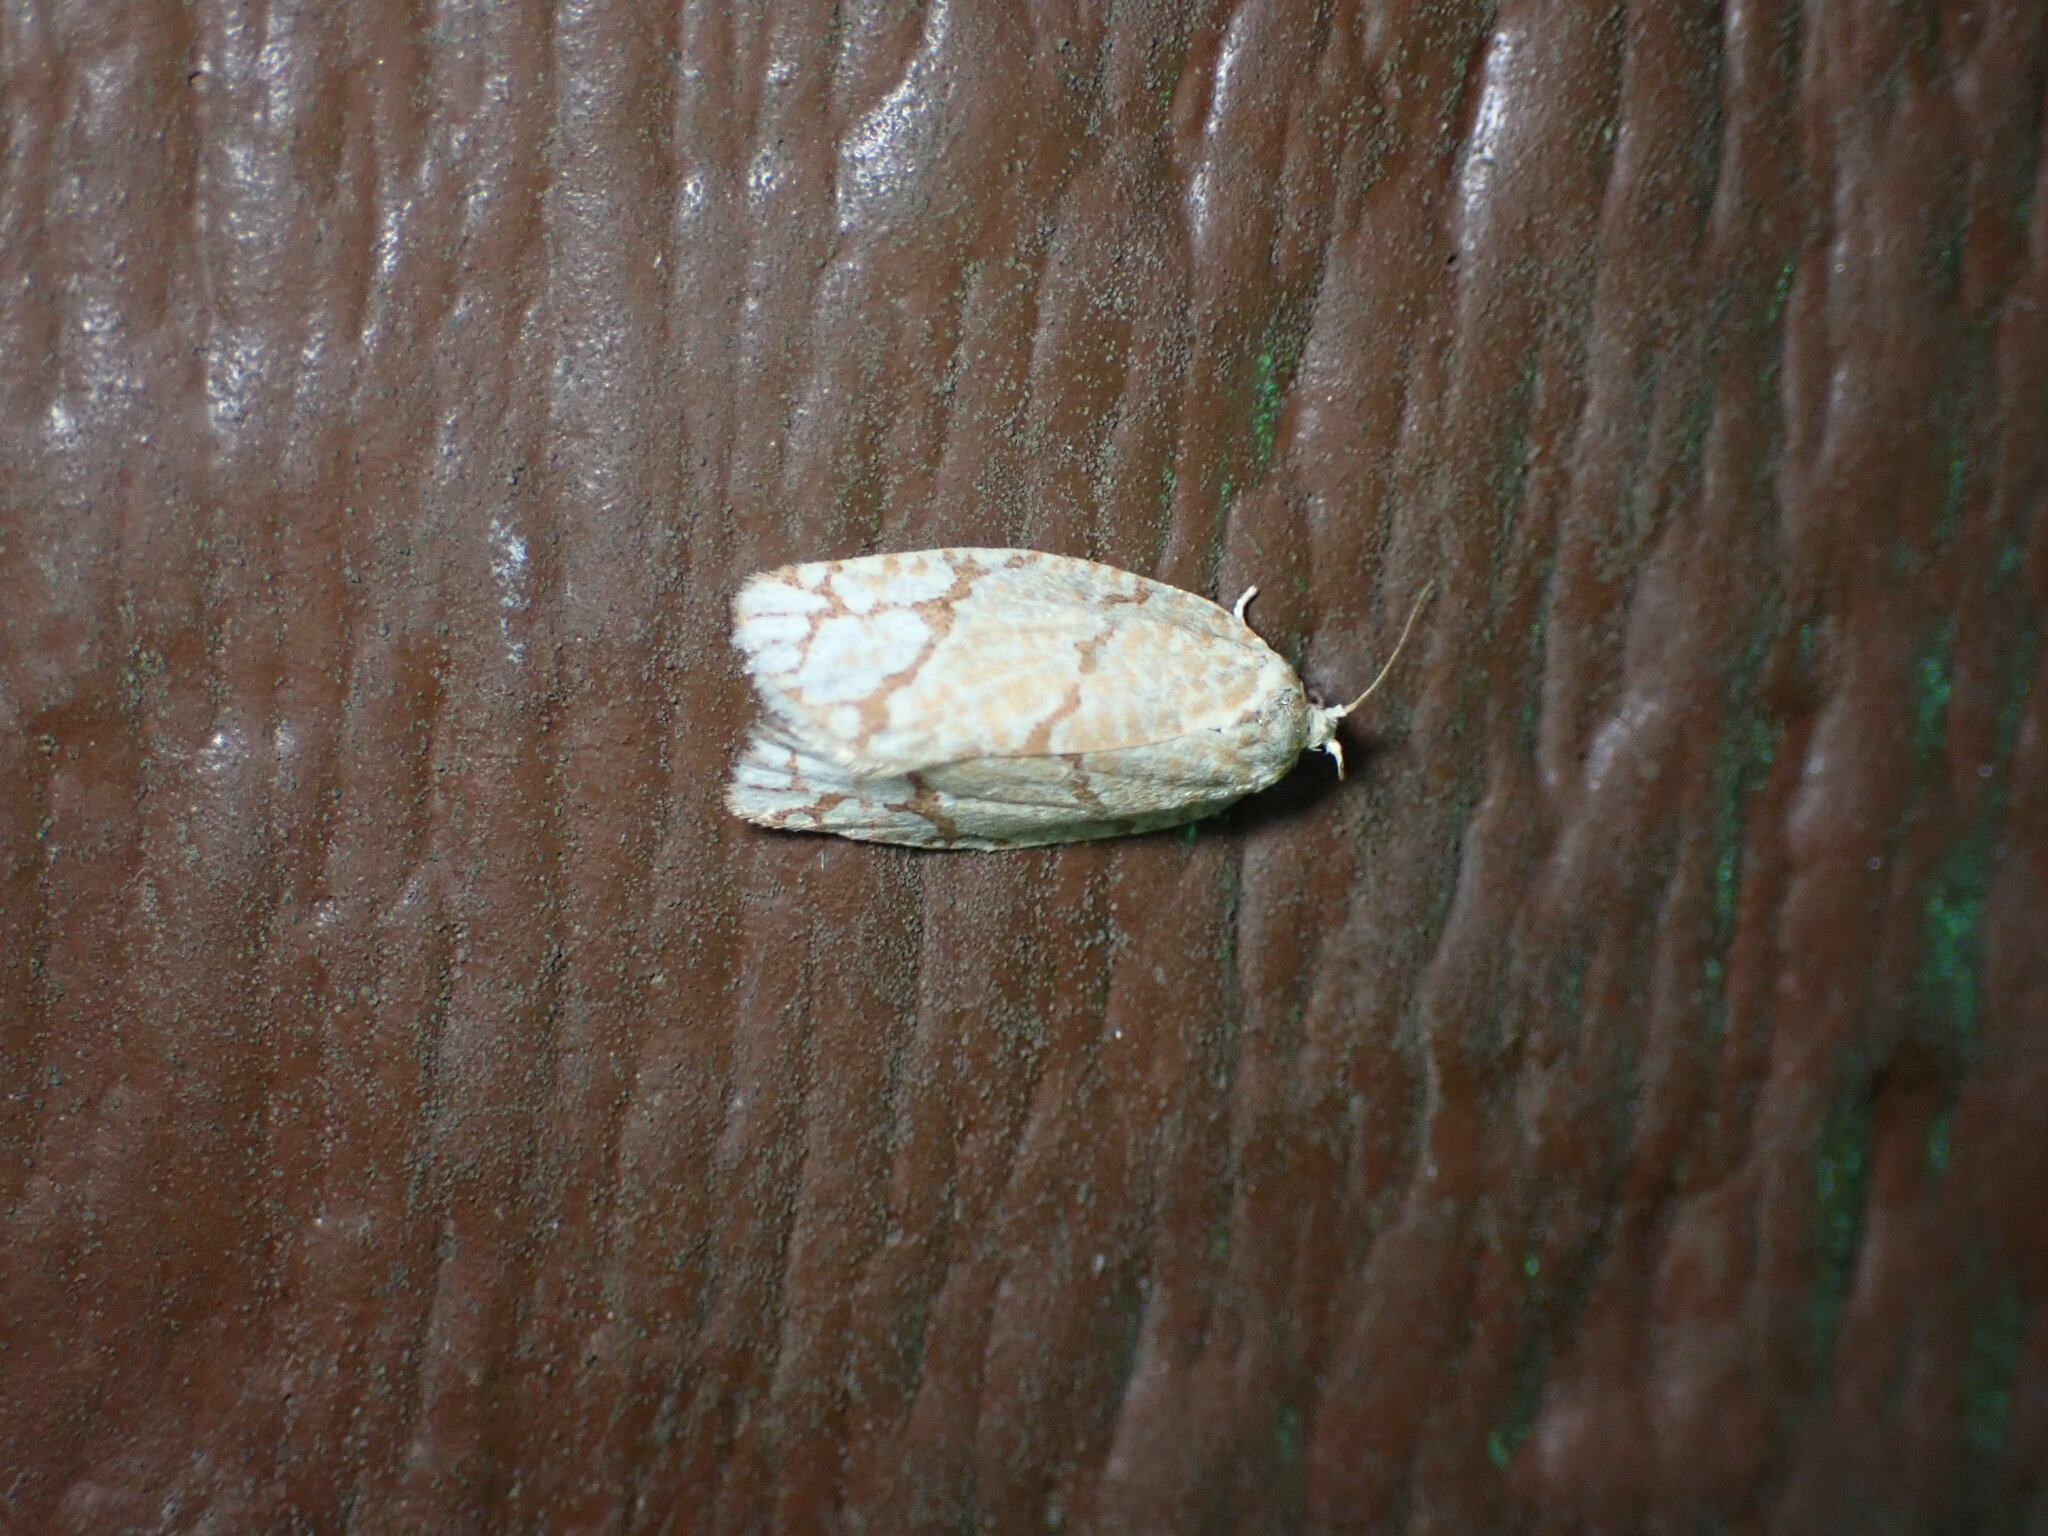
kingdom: Animalia
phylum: Arthropoda
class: Insecta
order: Lepidoptera
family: Tortricidae
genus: Argyrotaenia
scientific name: Argyrotaenia quercifoliana
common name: Yellow-winged oak leafroller moth
